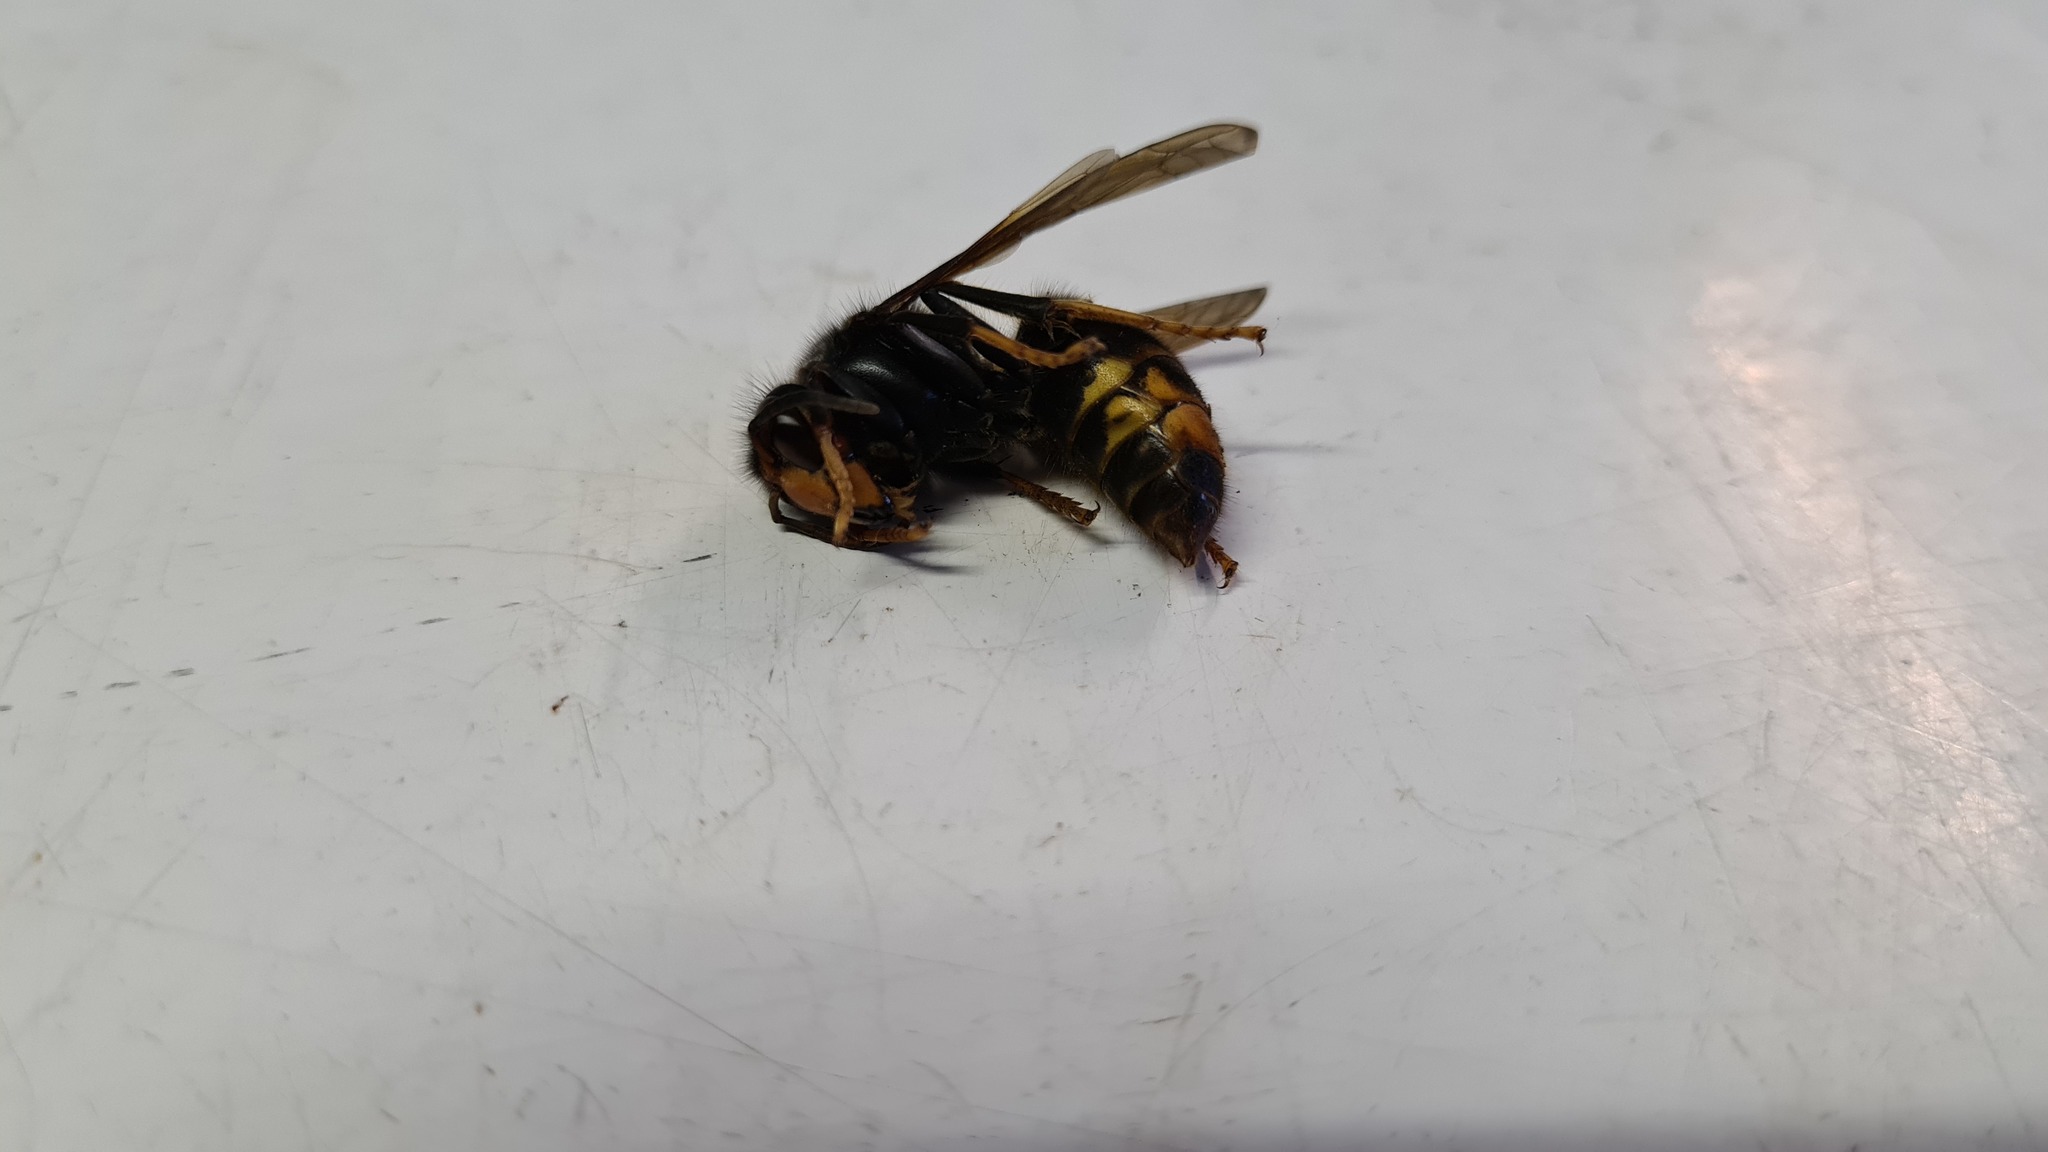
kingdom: Animalia
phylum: Arthropoda
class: Insecta
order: Hymenoptera
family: Vespidae
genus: Vespa
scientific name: Vespa velutina
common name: Asian hornet
